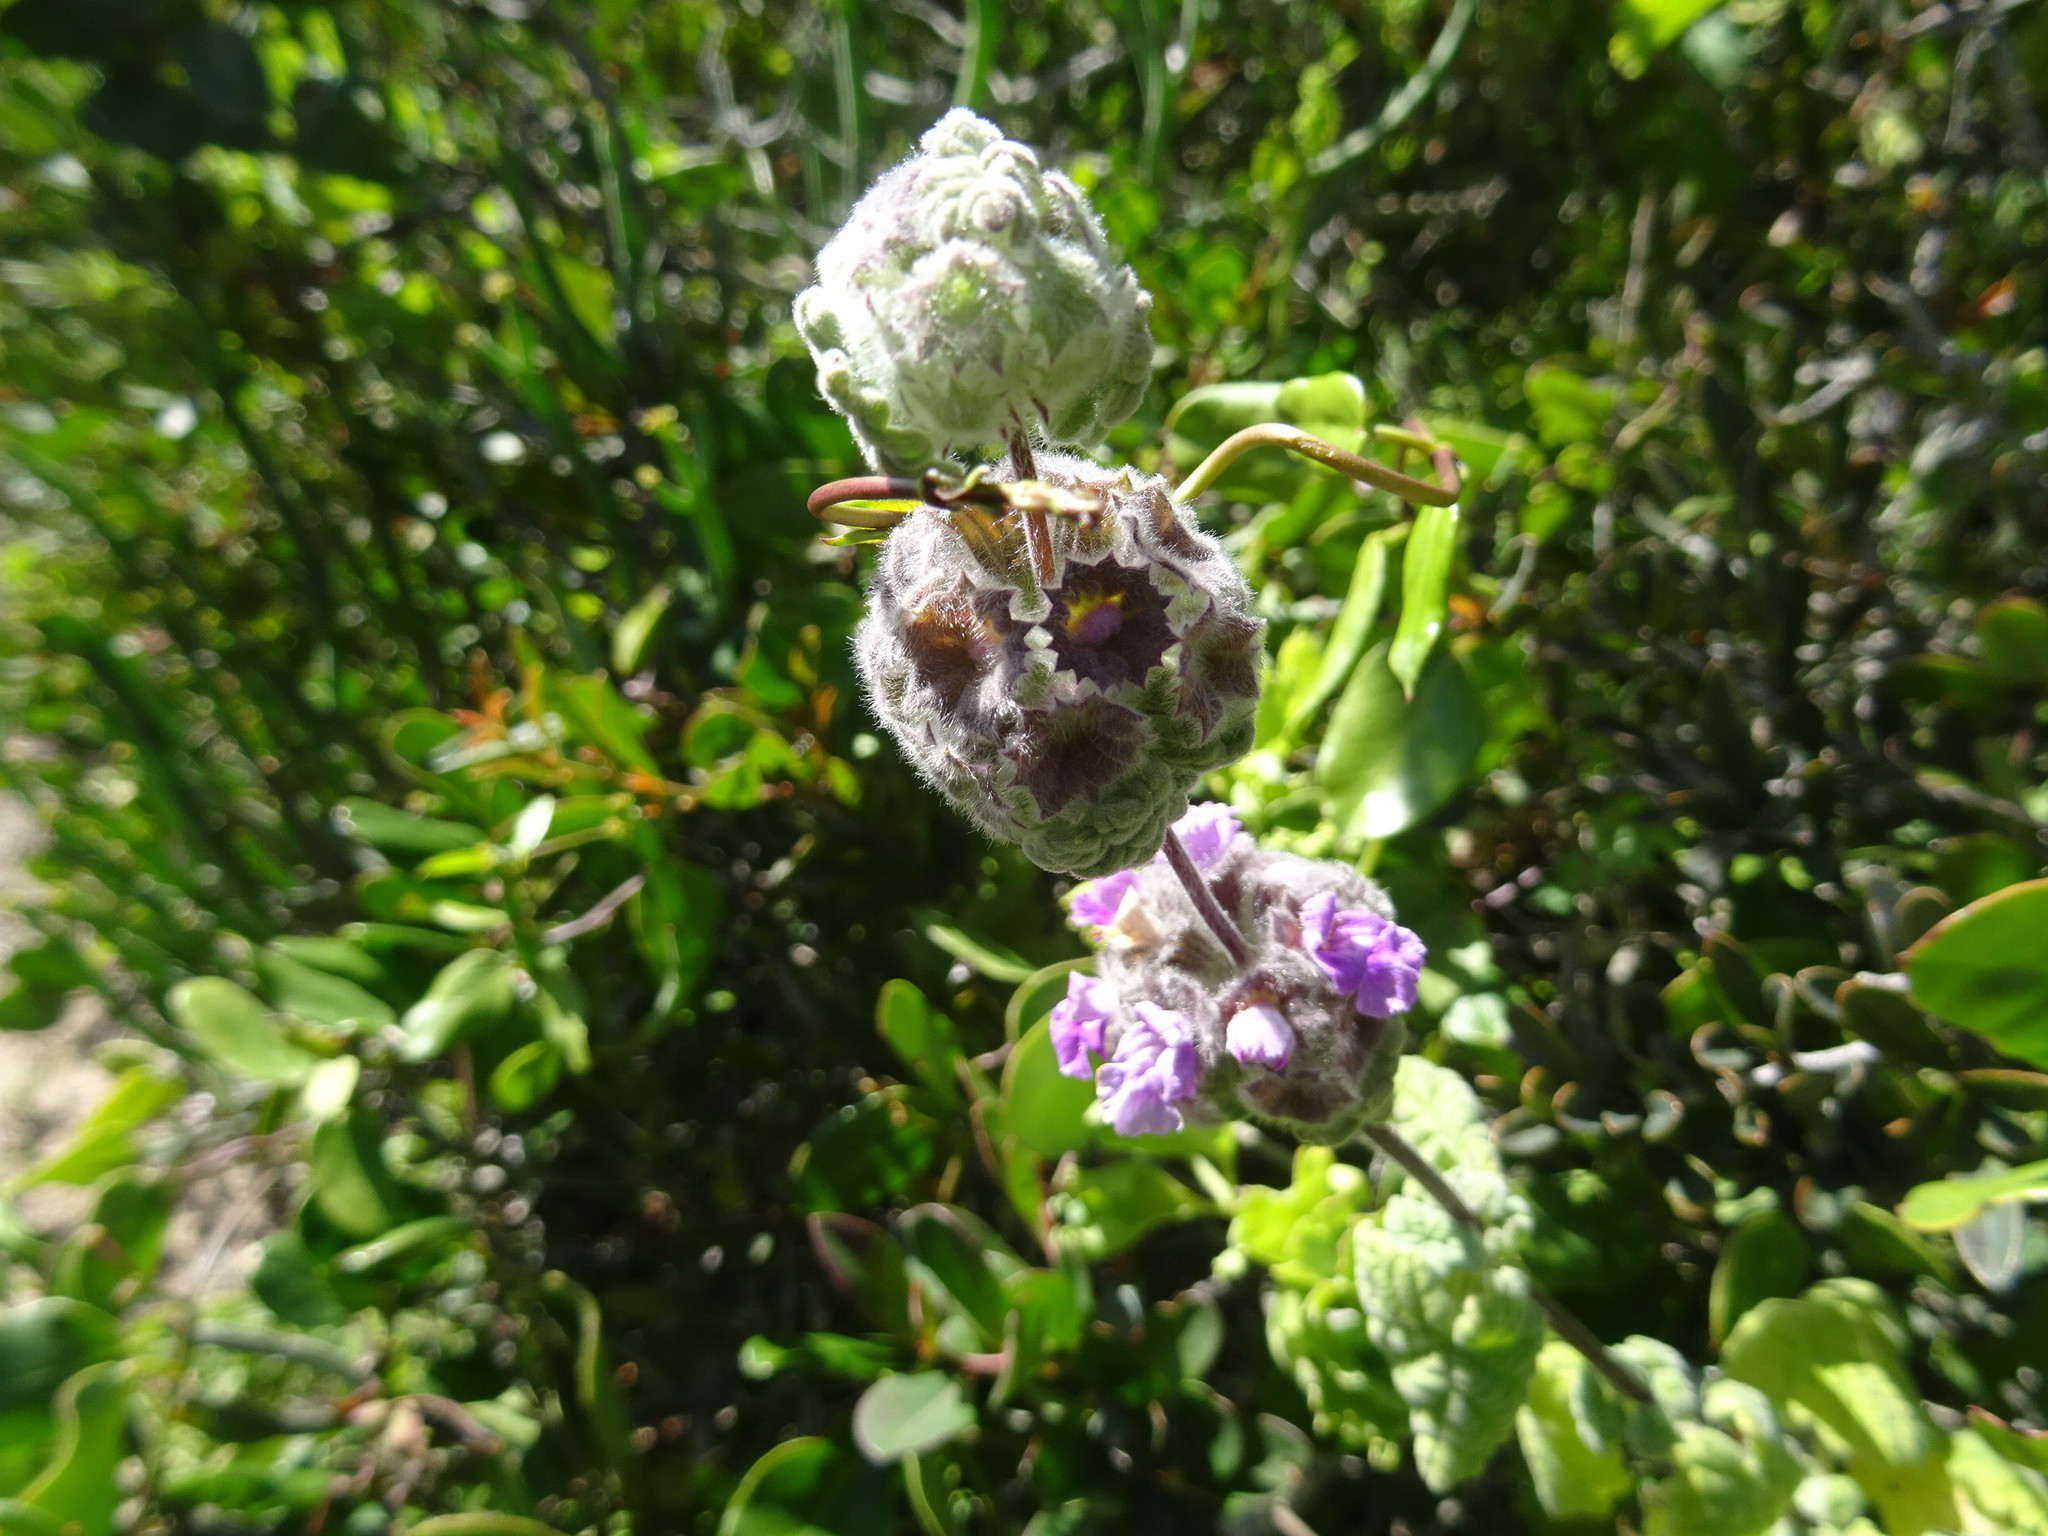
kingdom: Plantae
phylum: Tracheophyta
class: Magnoliopsida
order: Lamiales
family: Lamiaceae
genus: Pseudodictamnus
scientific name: Pseudodictamnus africanus
